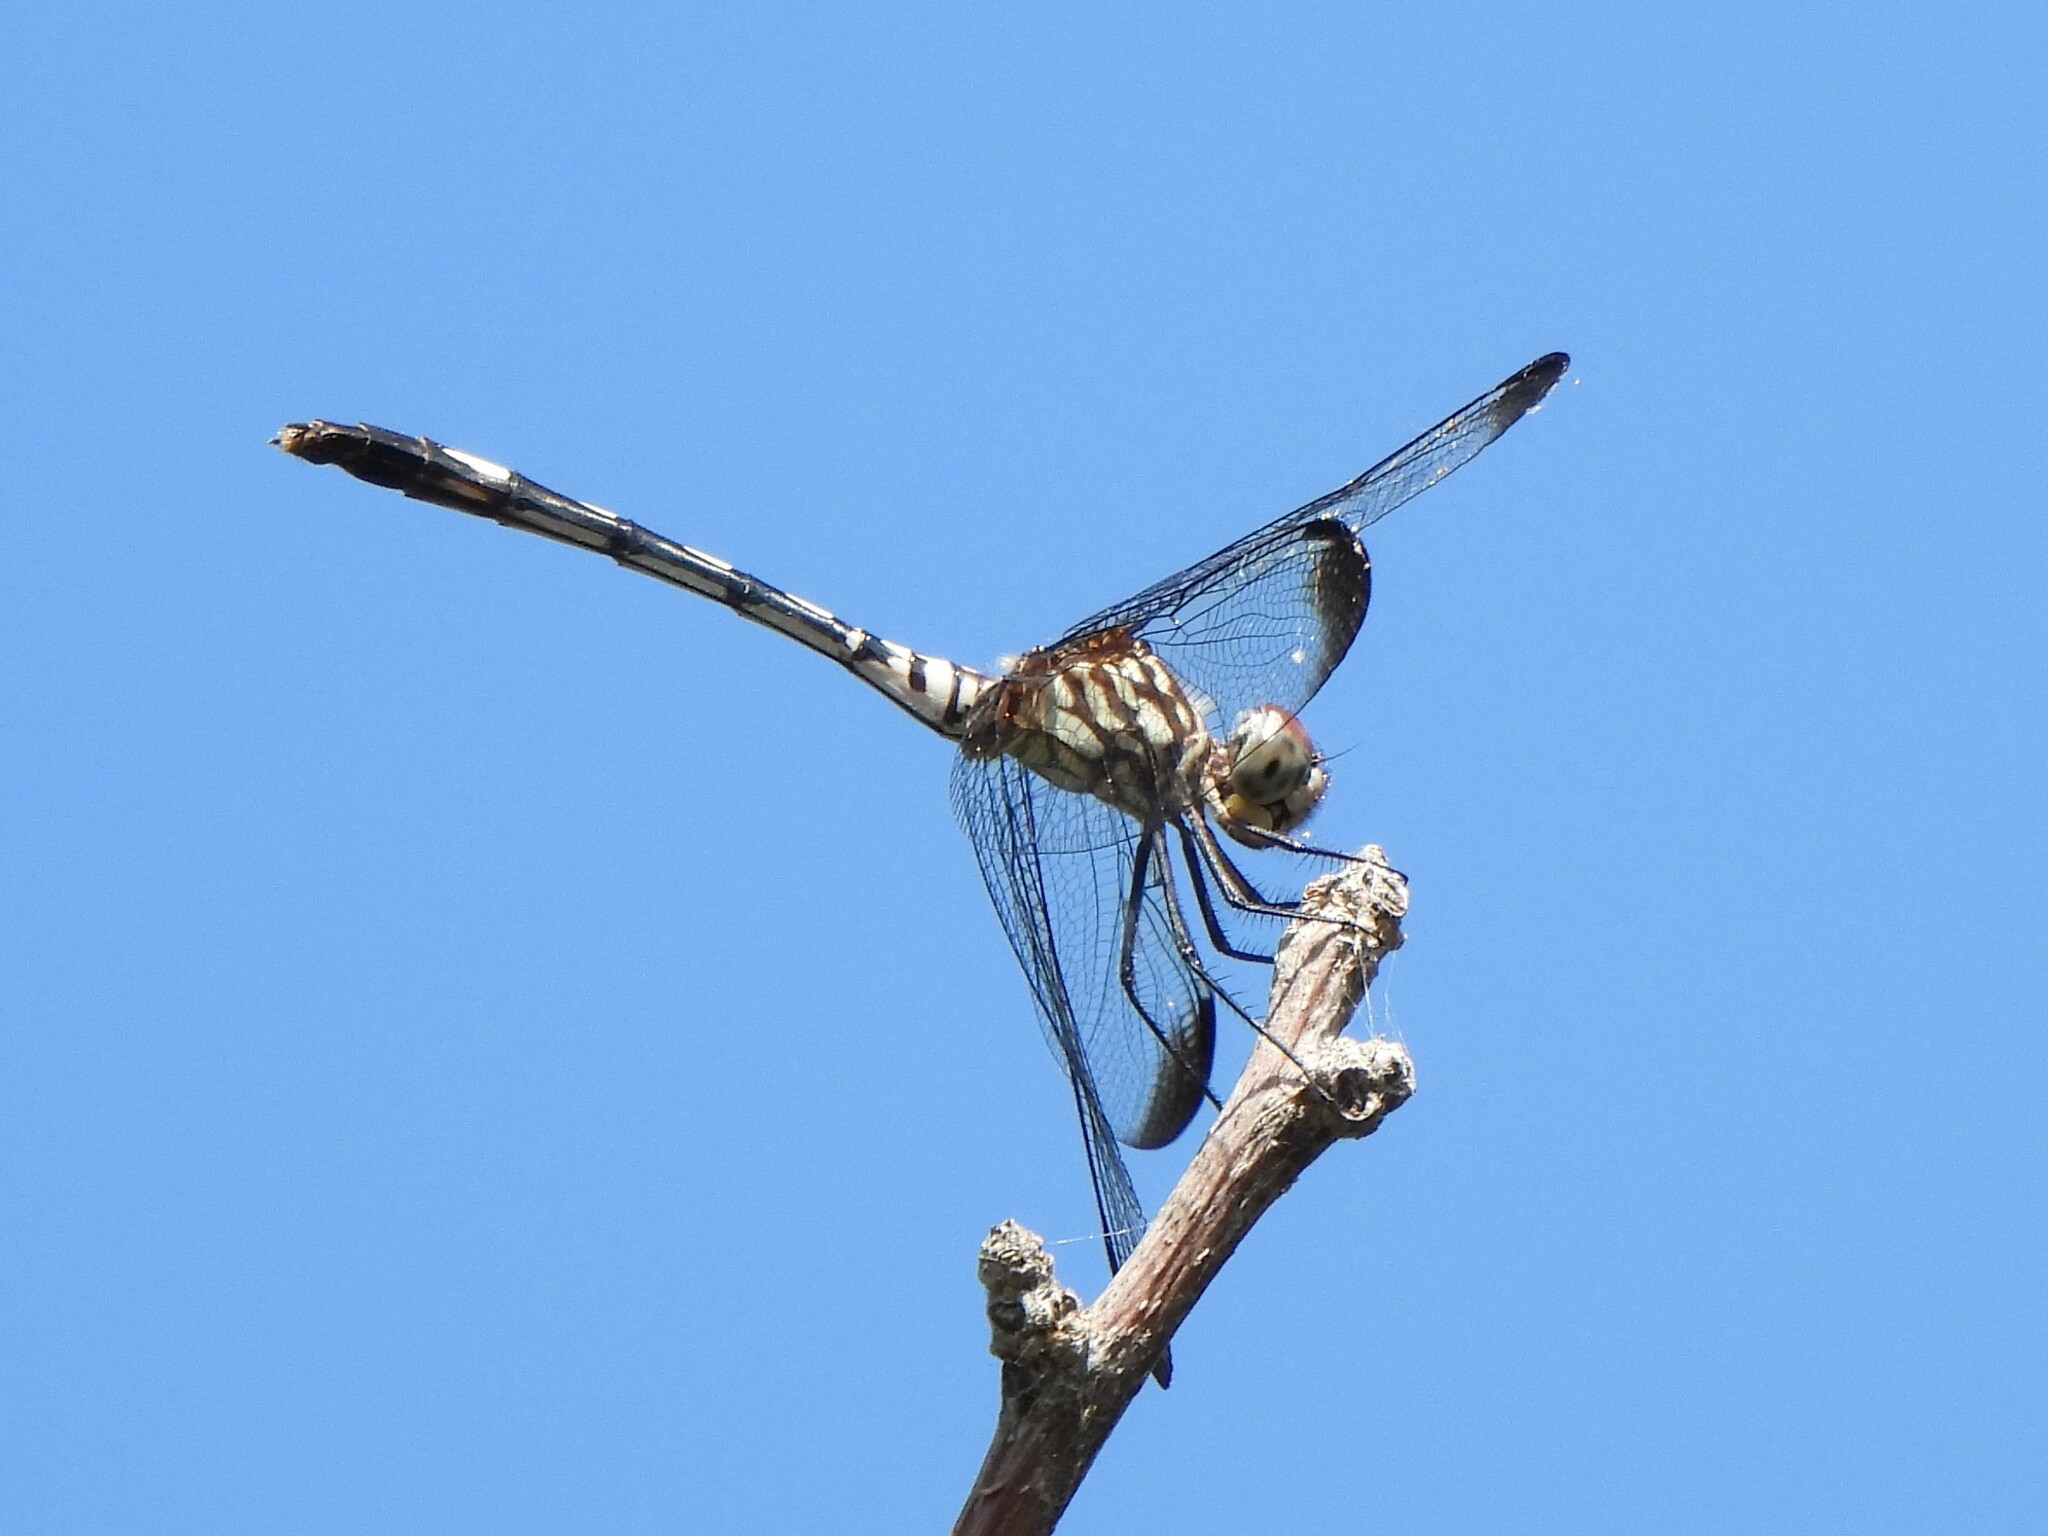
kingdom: Animalia
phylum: Arthropoda
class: Insecta
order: Odonata
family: Libellulidae
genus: Dythemis
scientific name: Dythemis velox
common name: Swift setwing
